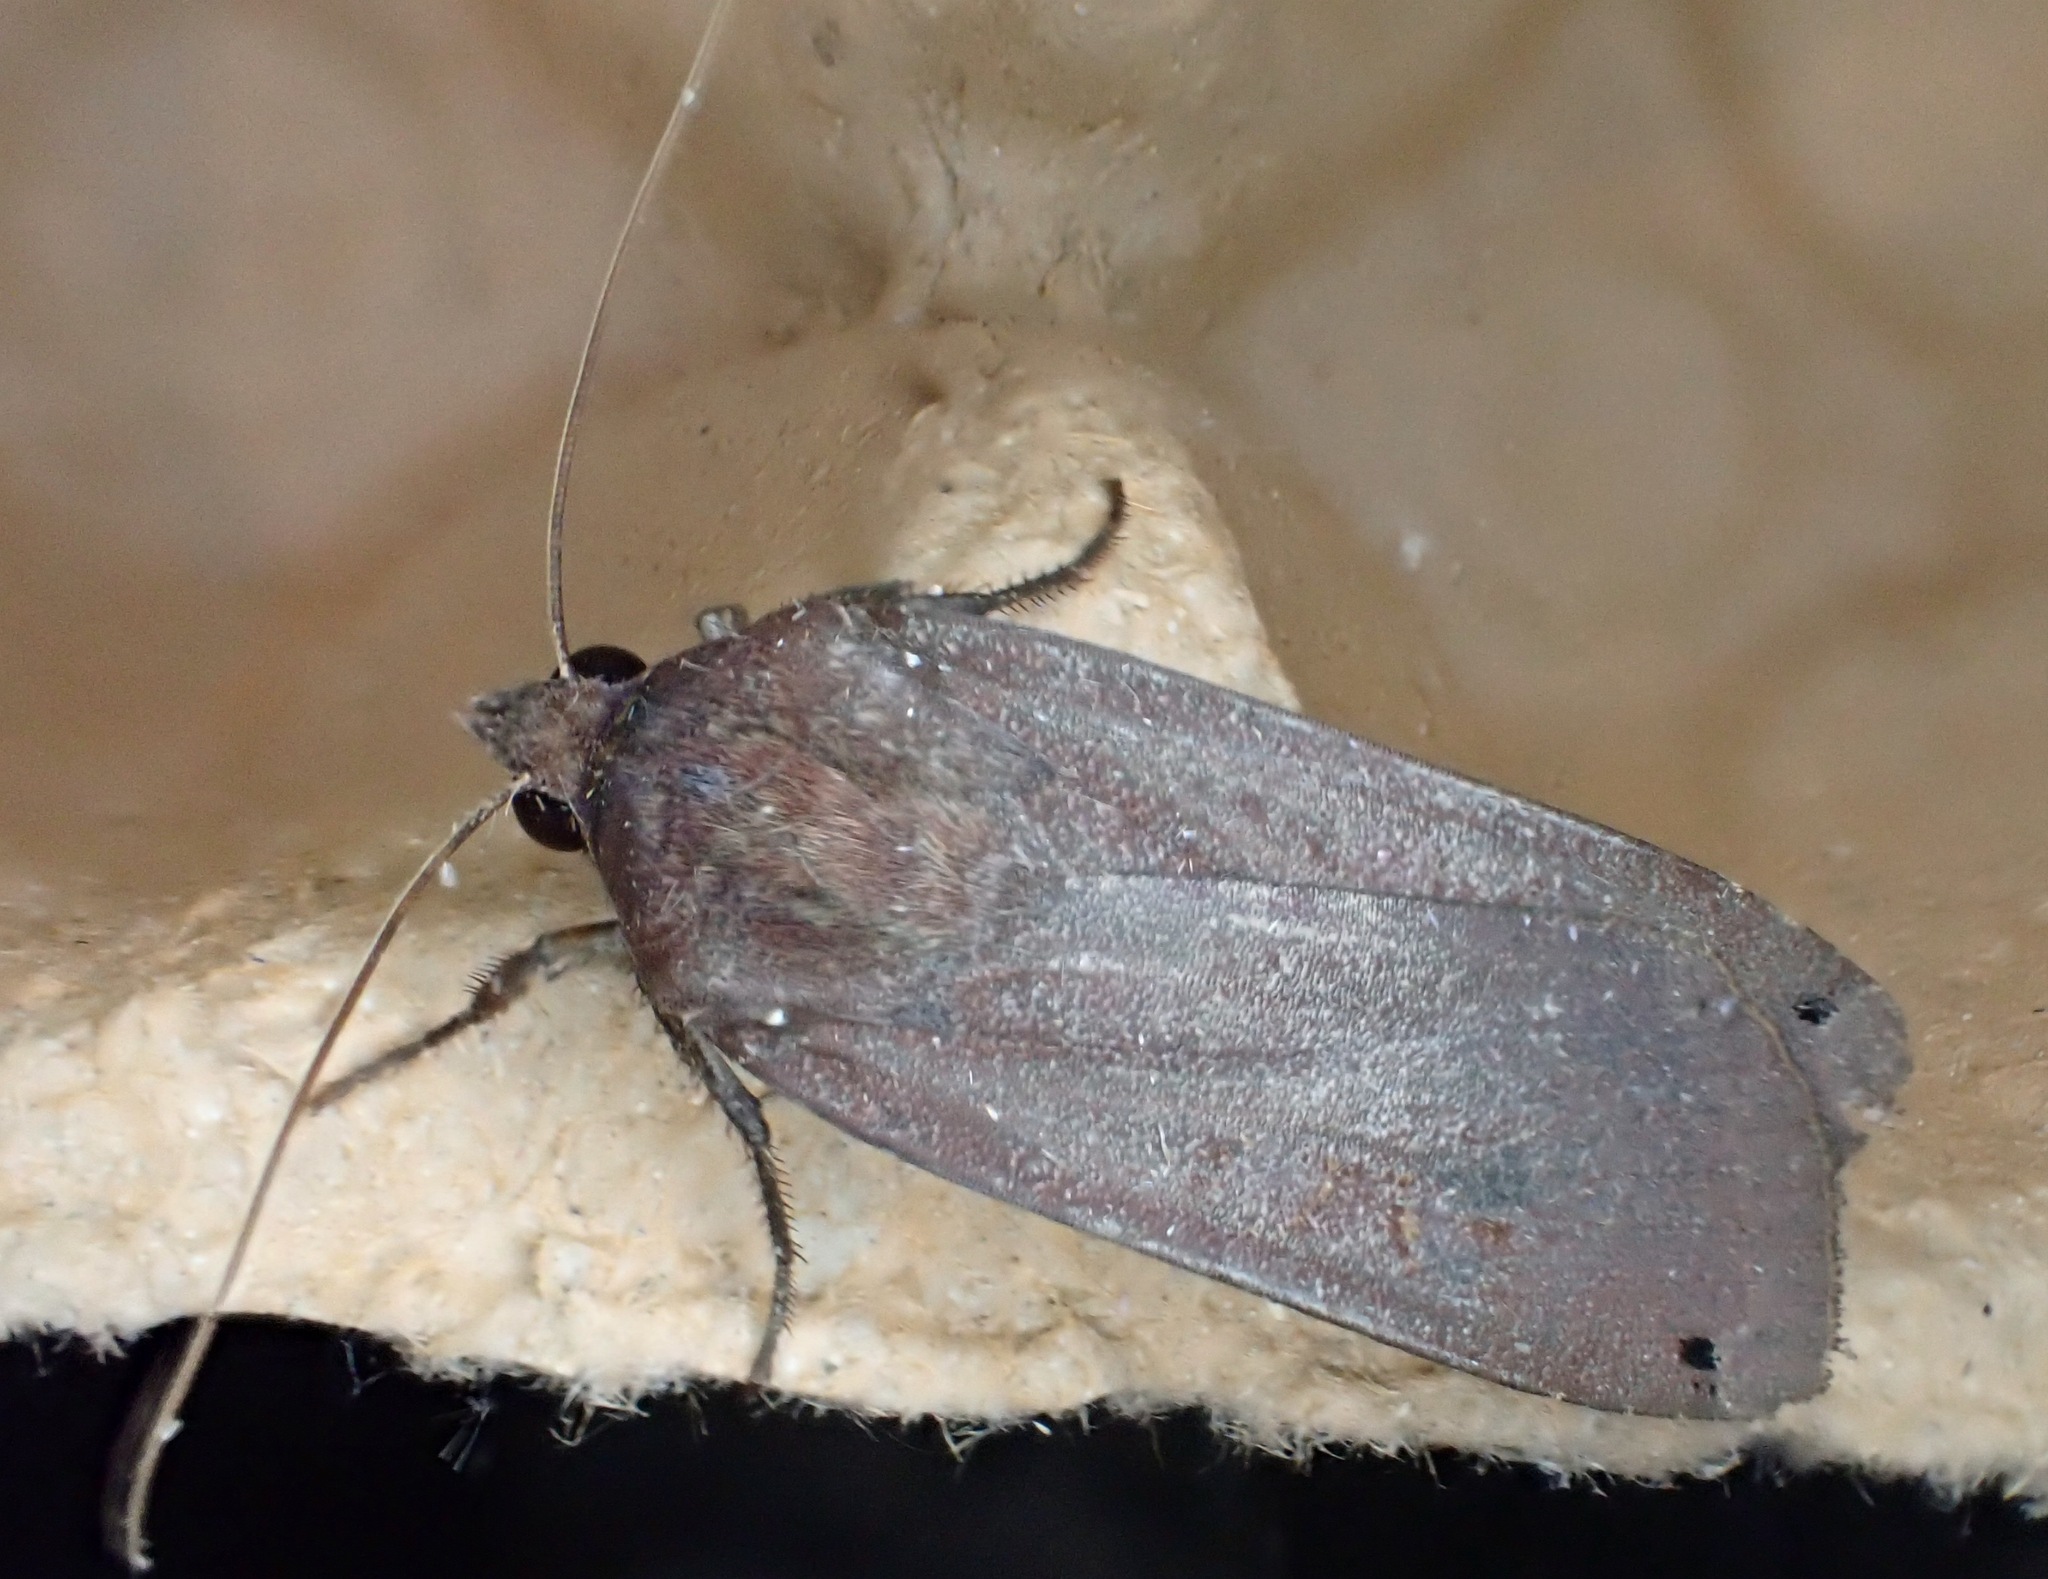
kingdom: Animalia
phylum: Arthropoda
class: Insecta
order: Lepidoptera
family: Noctuidae
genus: Noctua
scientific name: Noctua pronuba
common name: Large yellow underwing
